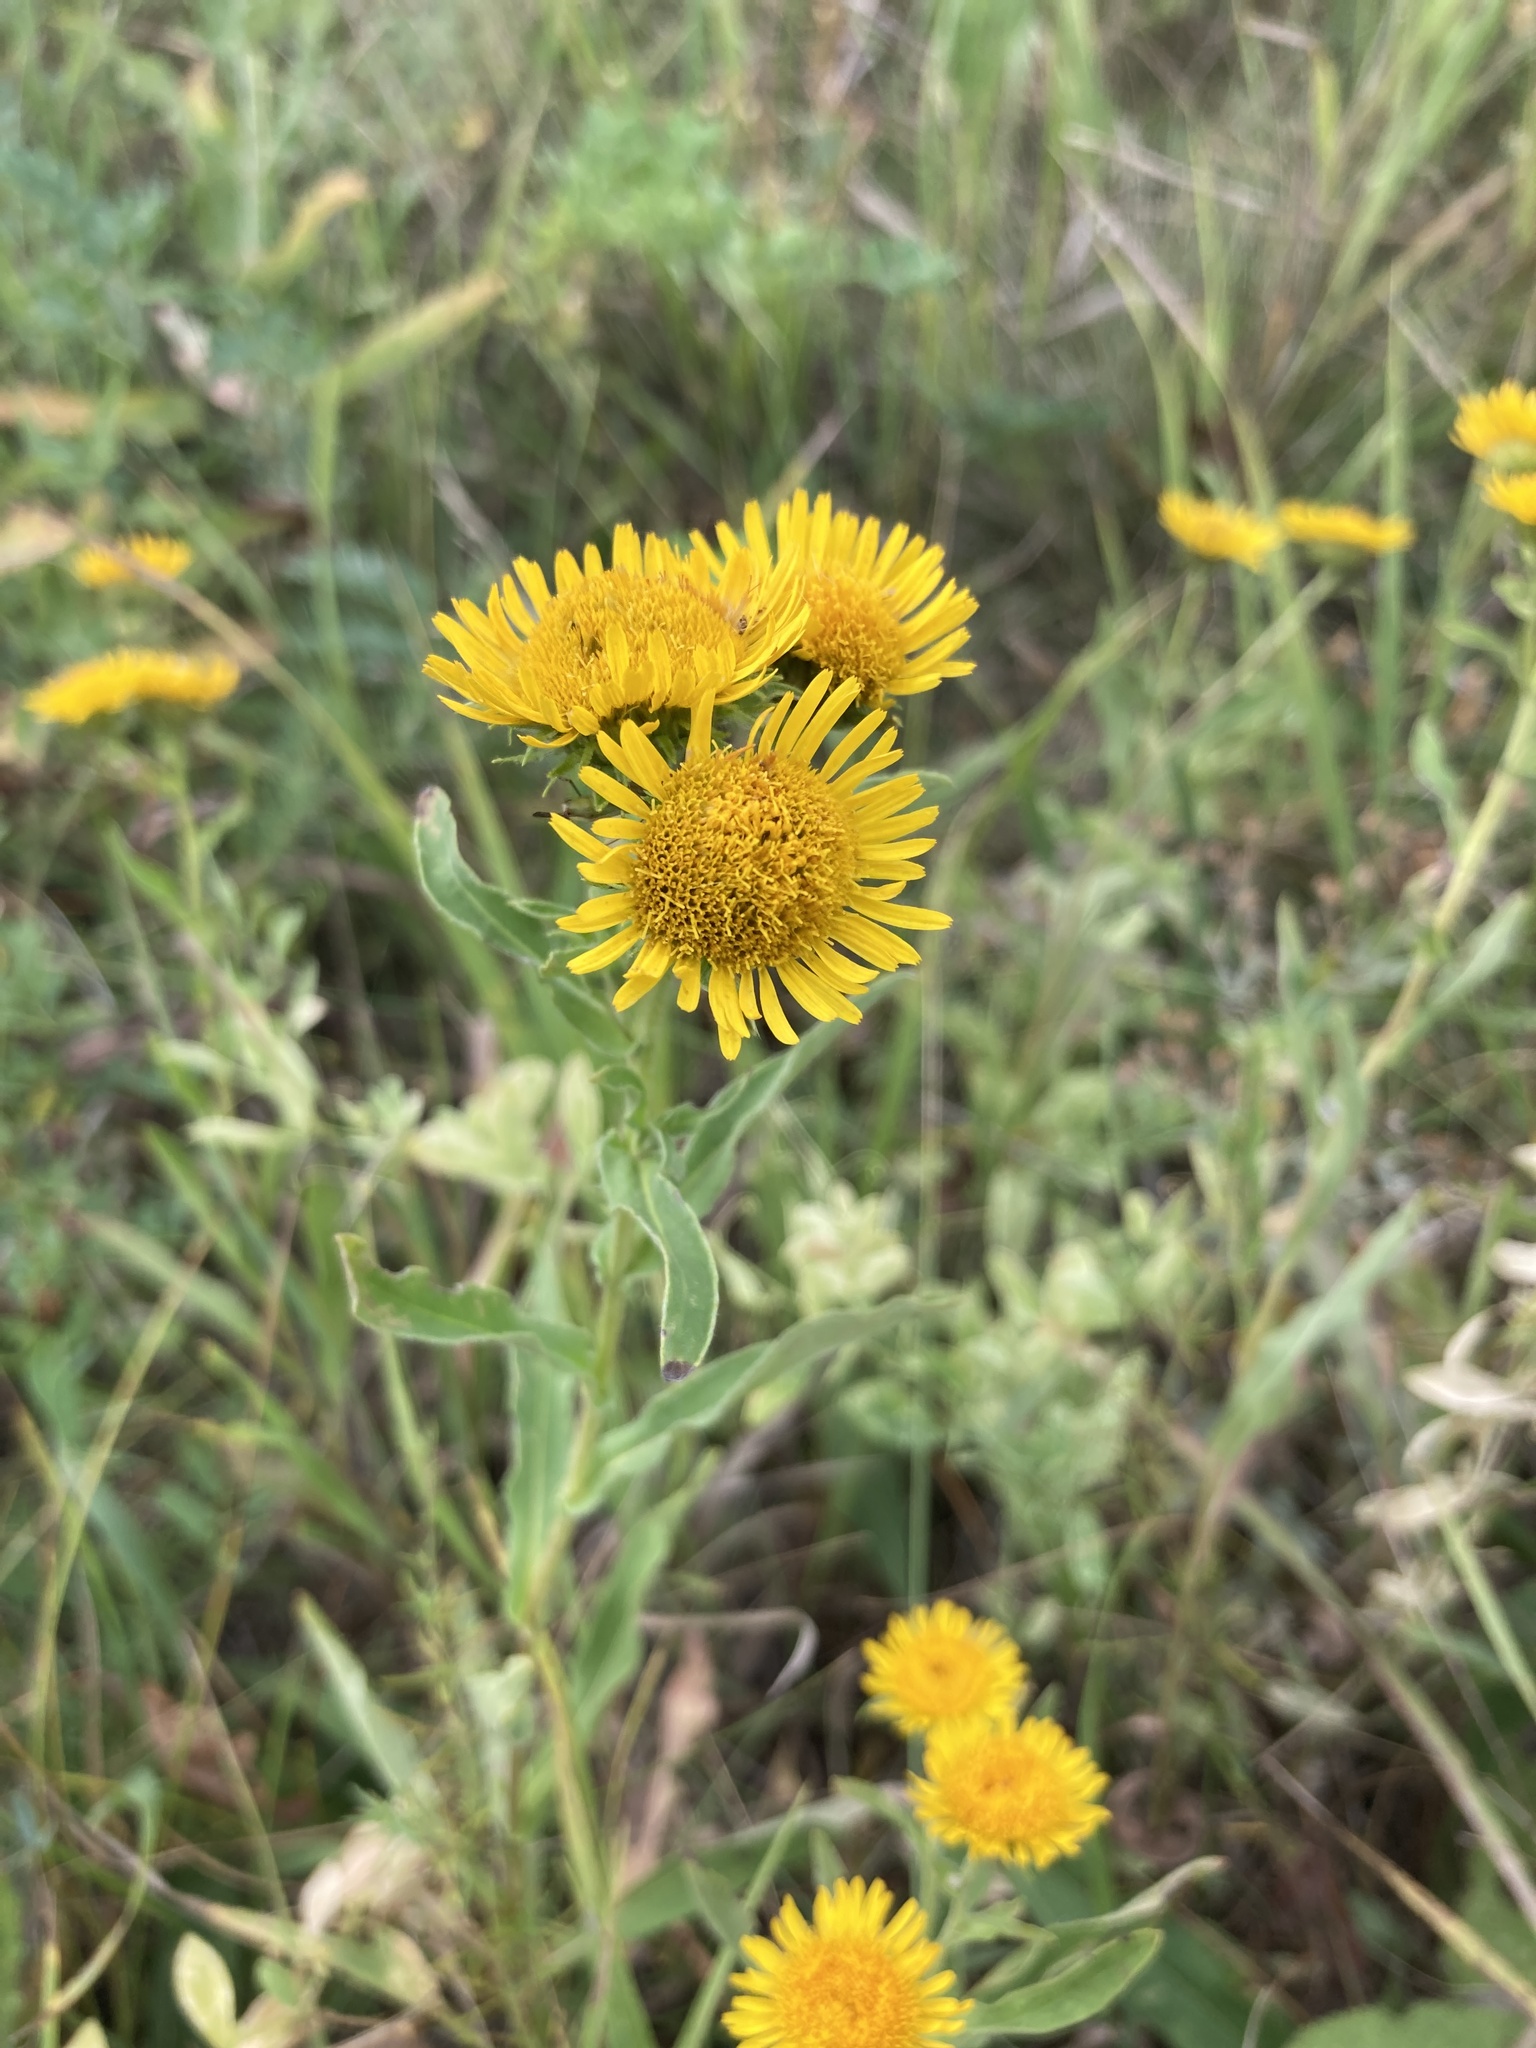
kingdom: Plantae
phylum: Tracheophyta
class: Magnoliopsida
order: Asterales
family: Asteraceae
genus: Pentanema
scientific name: Pentanema britannicum
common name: British elecampane
